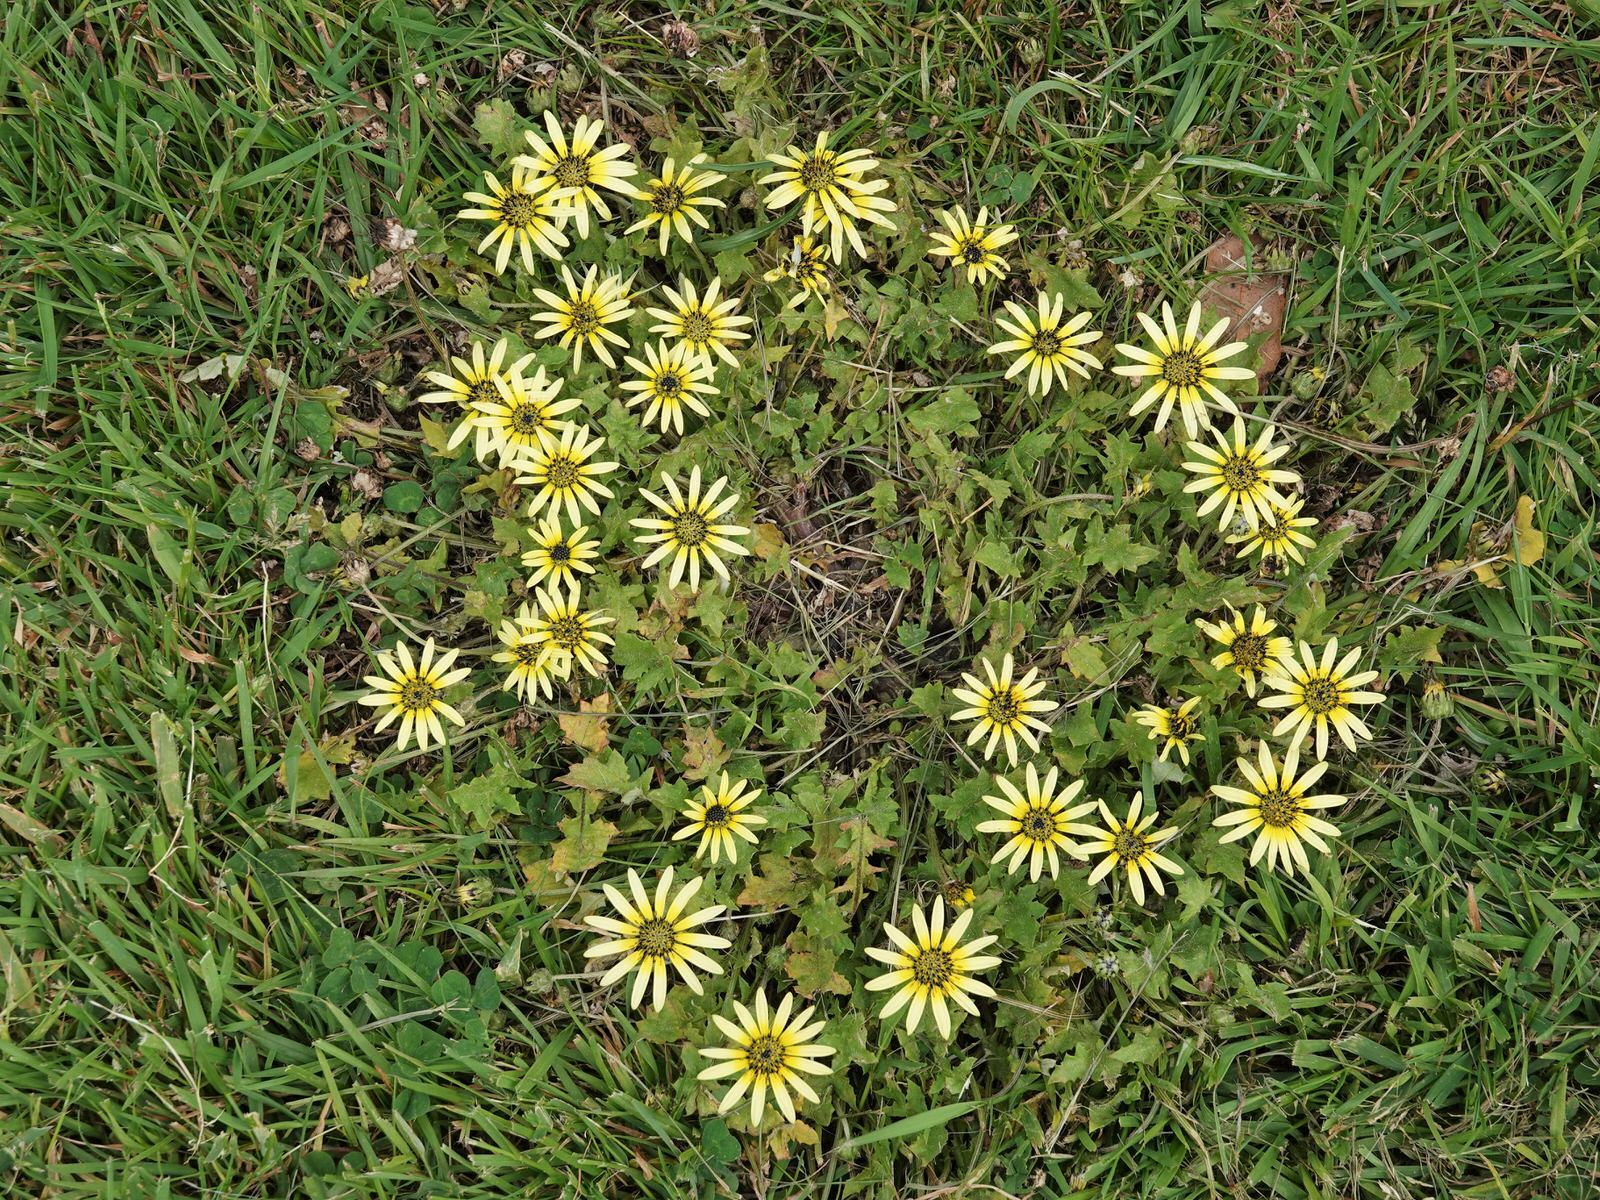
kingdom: Plantae
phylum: Tracheophyta
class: Magnoliopsida
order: Asterales
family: Asteraceae
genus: Arctotheca
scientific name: Arctotheca calendula
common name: Capeweed
